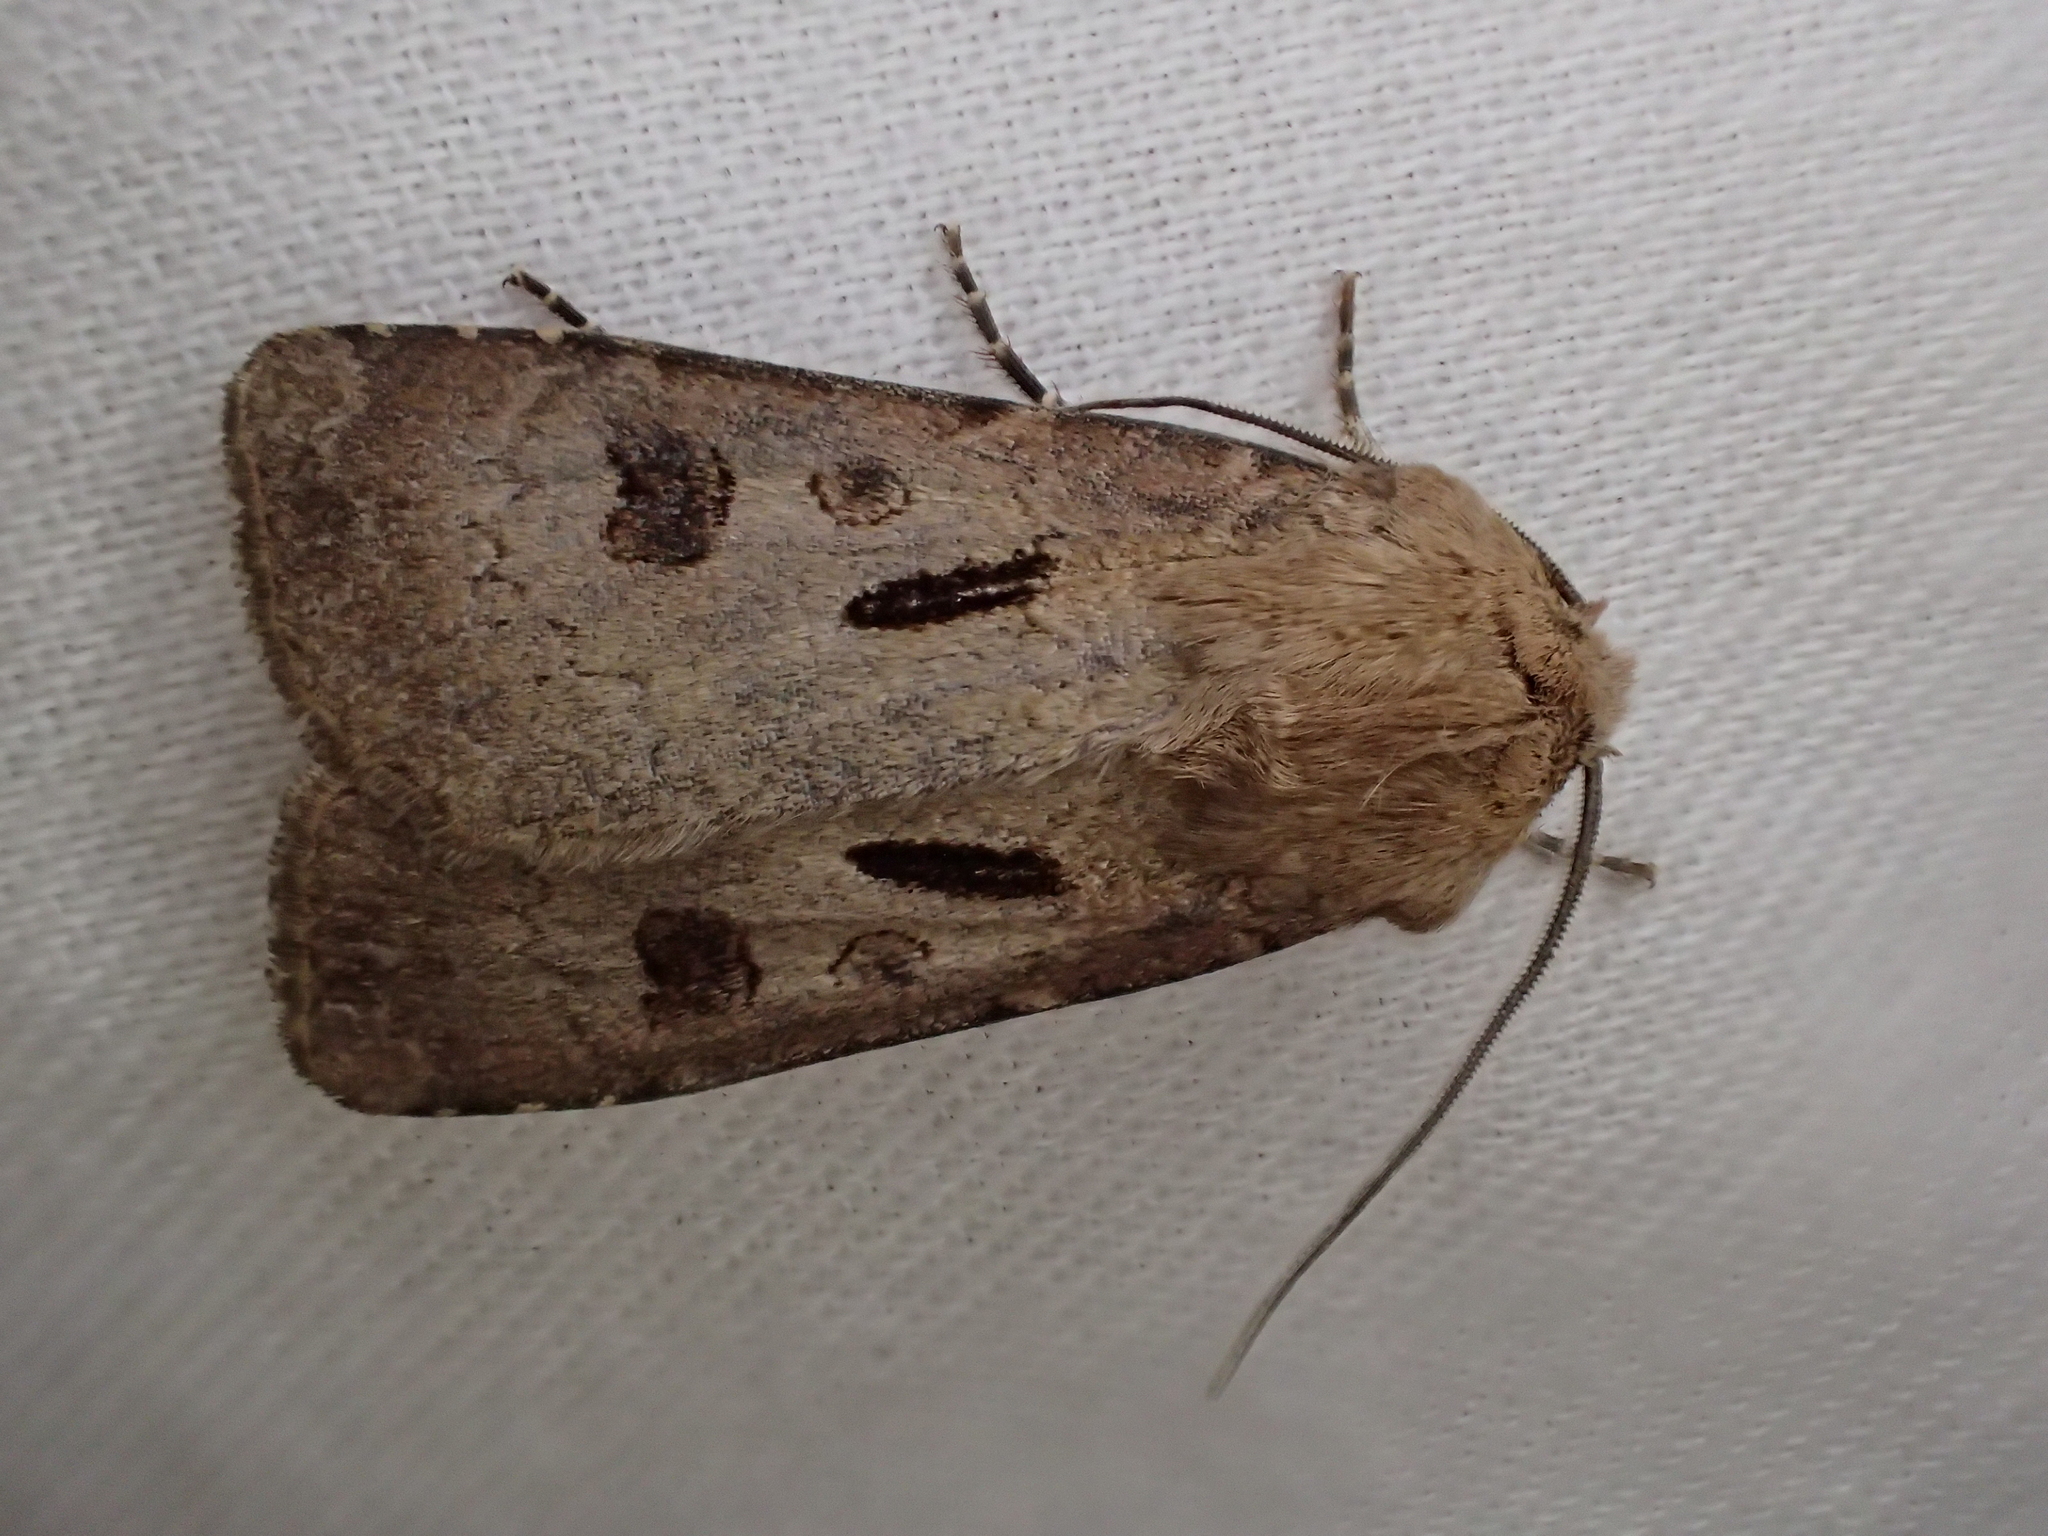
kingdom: Animalia
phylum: Arthropoda
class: Insecta
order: Lepidoptera
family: Noctuidae
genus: Agrotis
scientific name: Agrotis exclamationis
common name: Heart and dart
